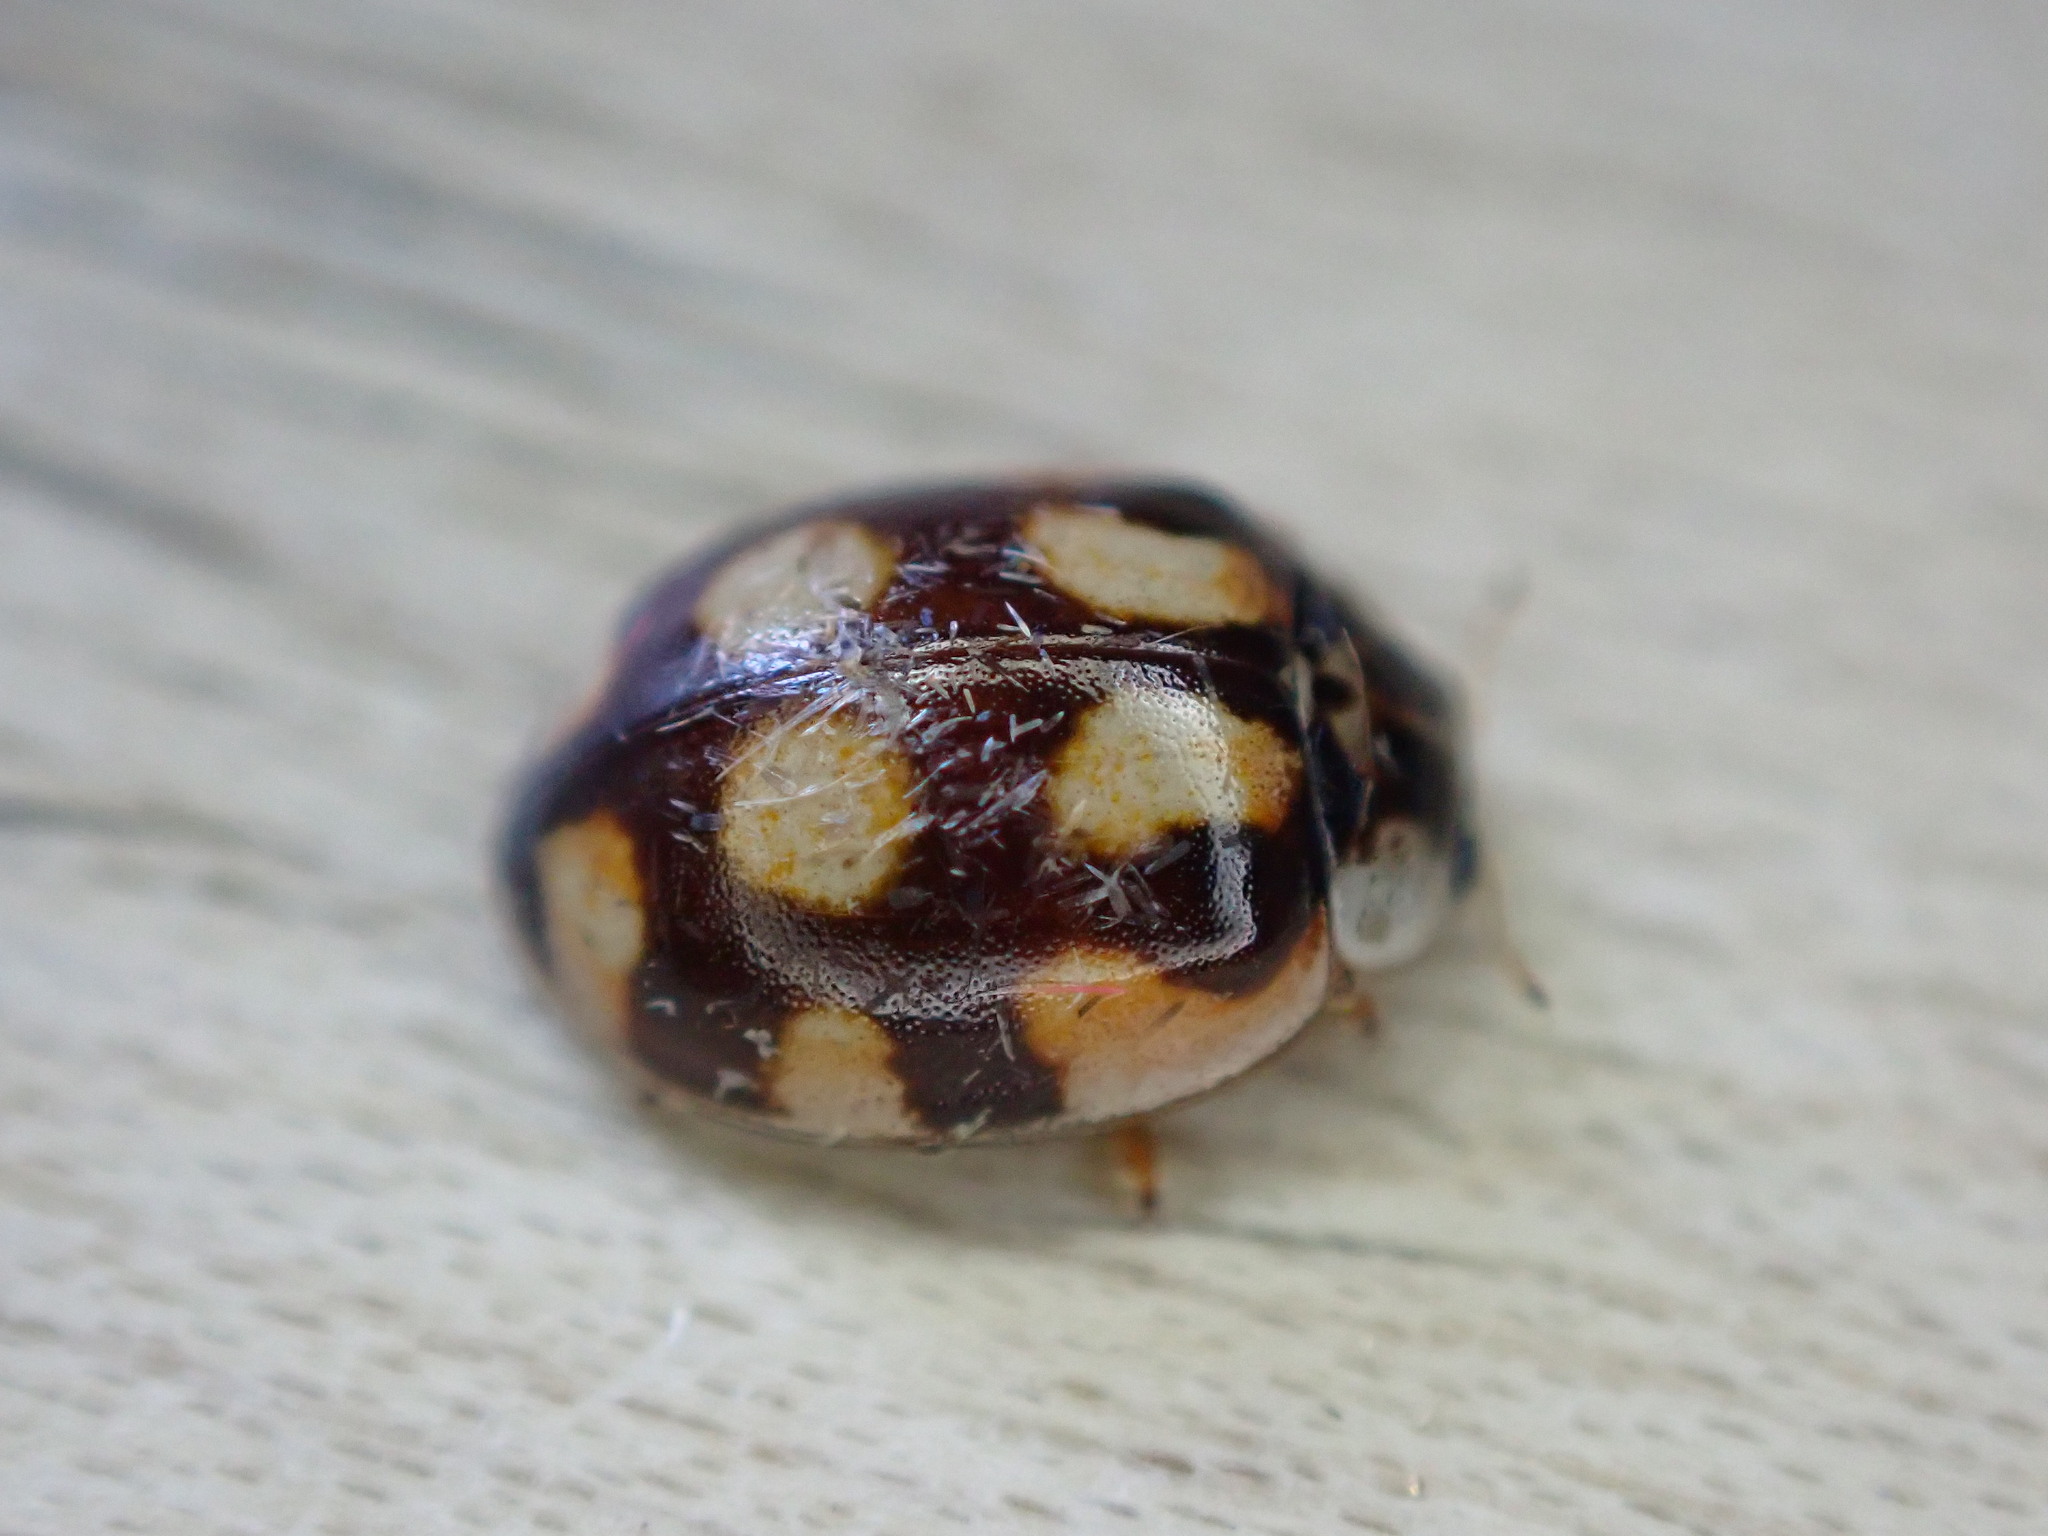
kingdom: Animalia
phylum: Arthropoda
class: Insecta
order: Coleoptera
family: Coccinellidae
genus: Adalia
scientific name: Adalia decempunctata
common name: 10-spot ladybird
